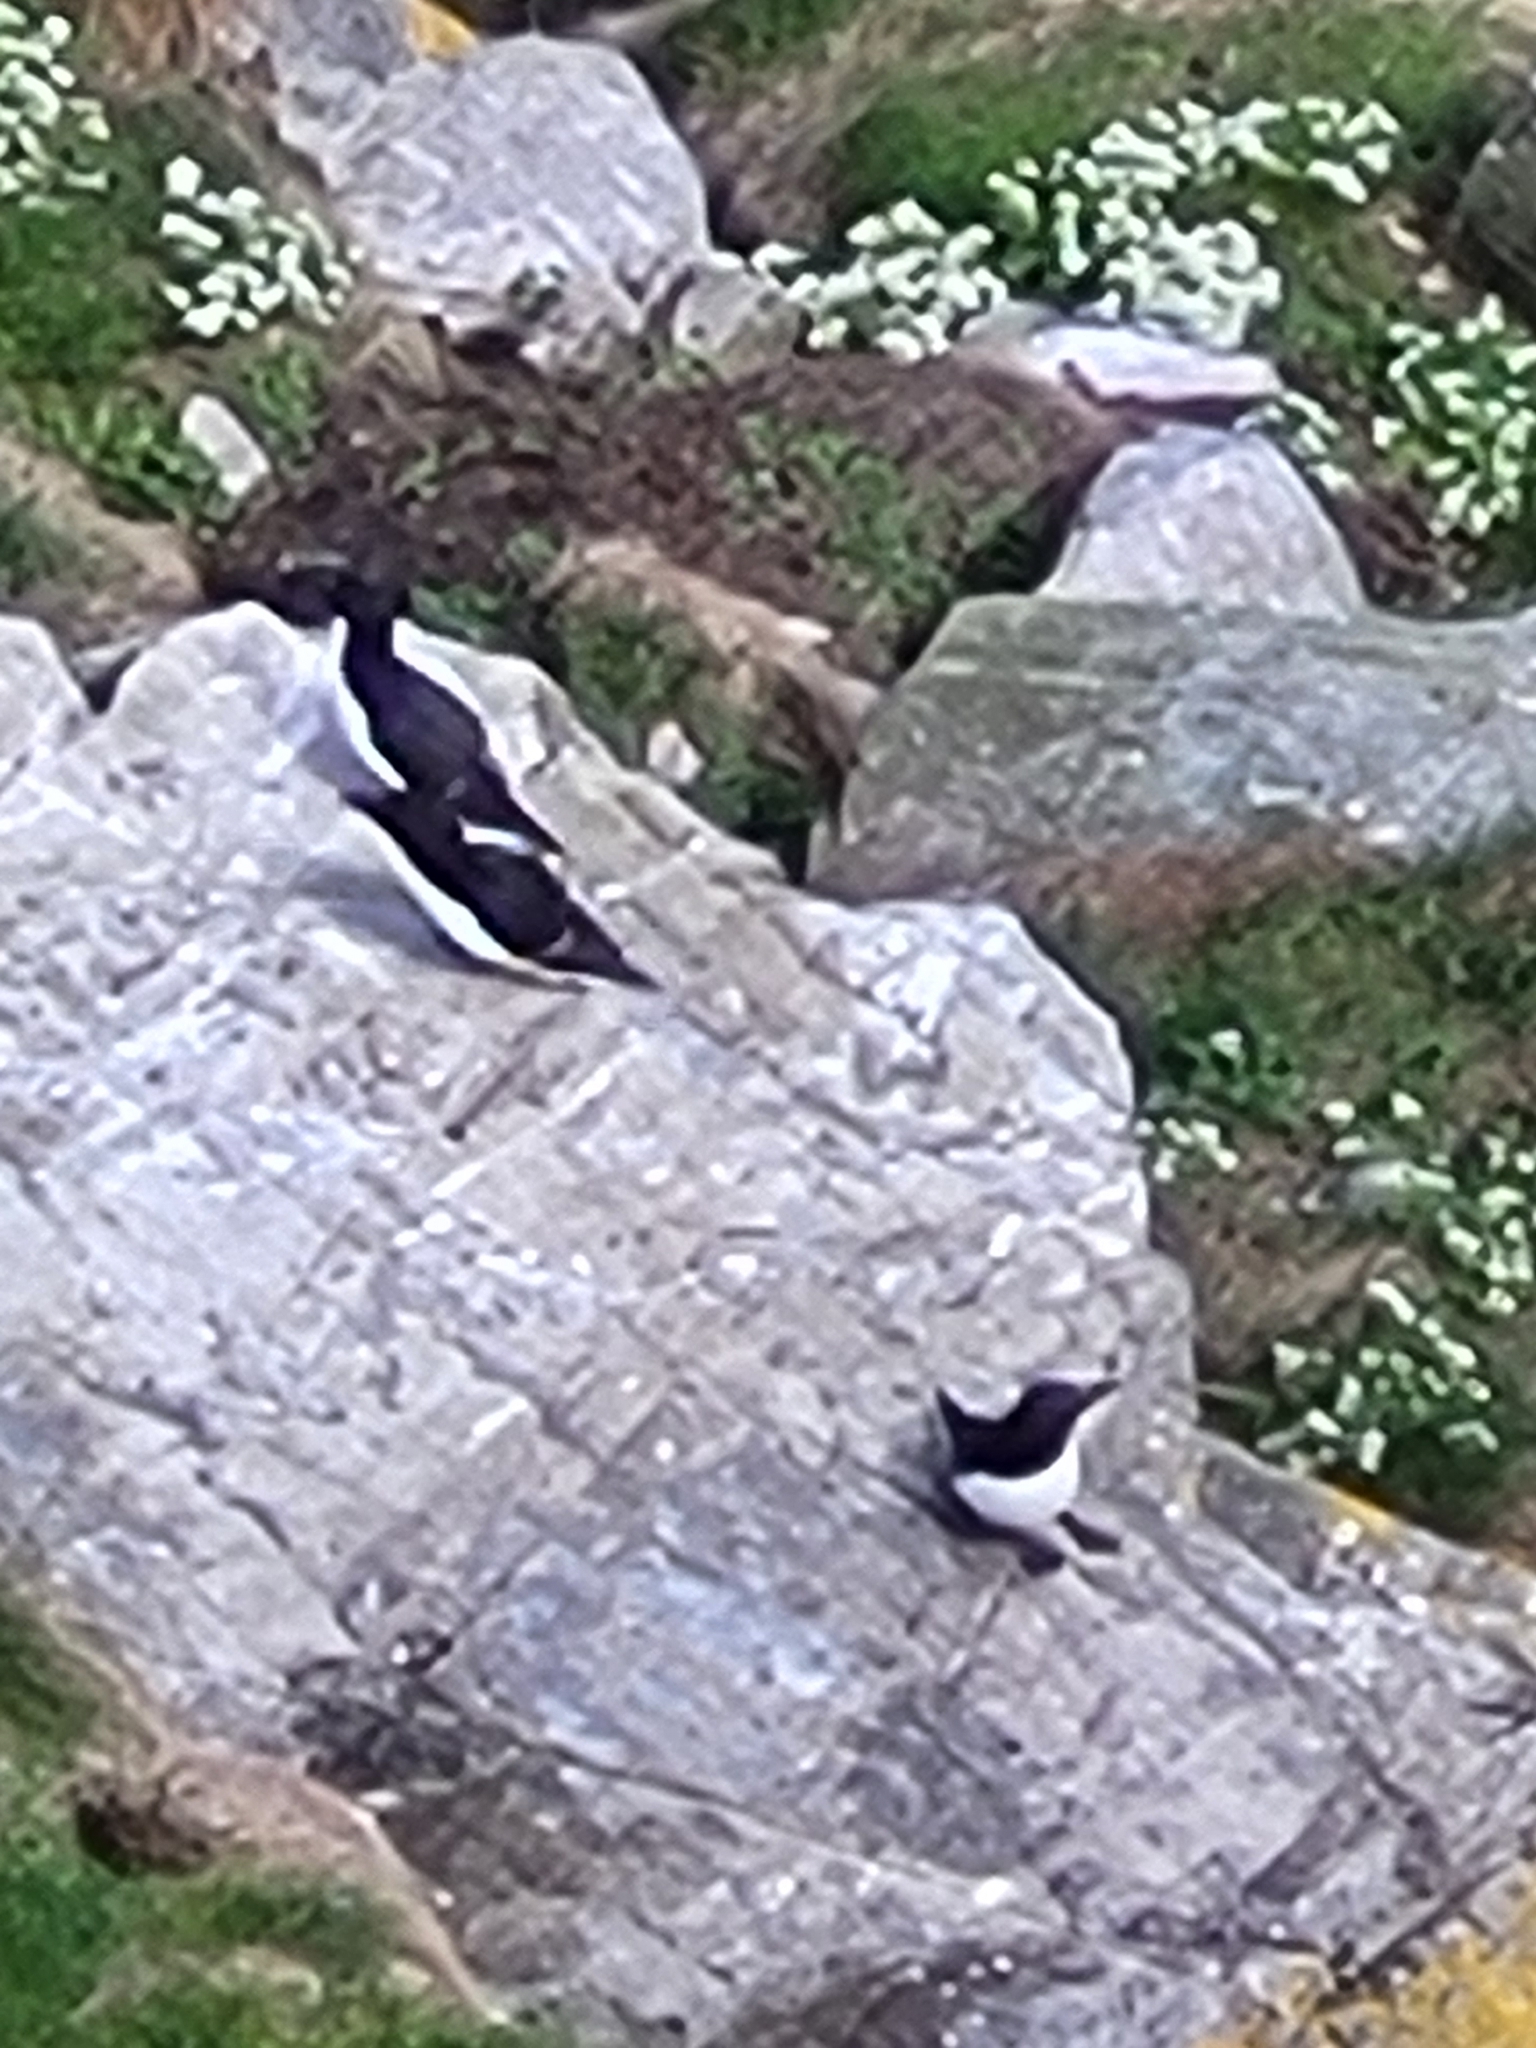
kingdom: Animalia
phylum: Chordata
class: Aves
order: Charadriiformes
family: Alcidae
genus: Alca
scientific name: Alca torda
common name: Razorbill
